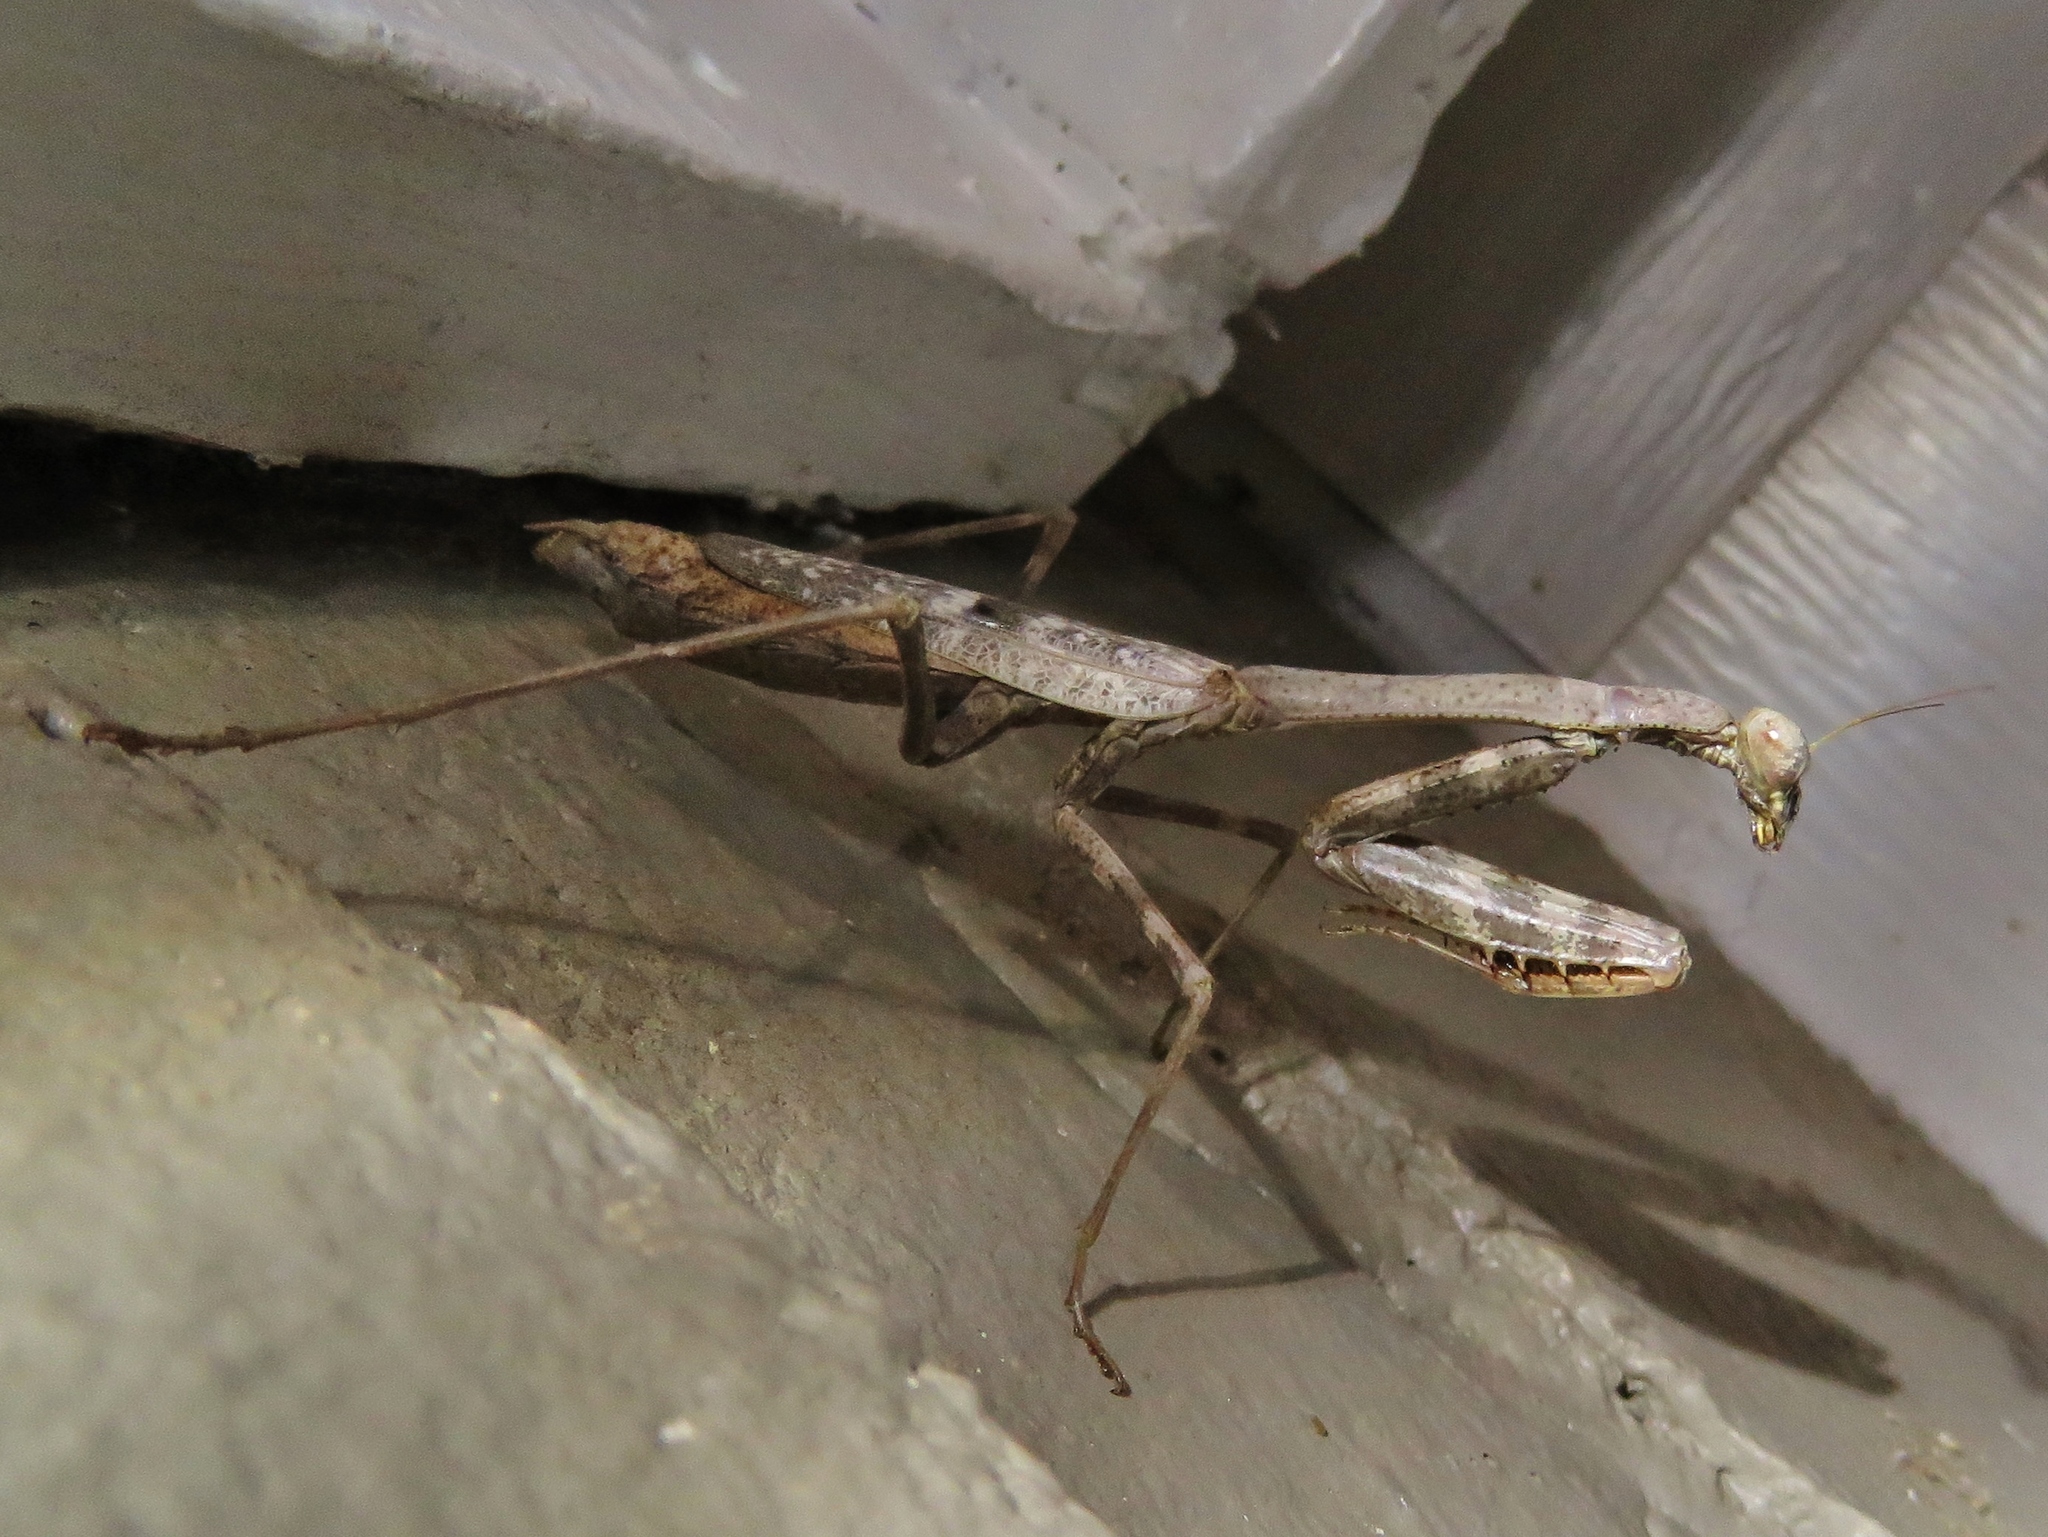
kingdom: Animalia
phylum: Arthropoda
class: Insecta
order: Mantodea
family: Mantidae
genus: Stagmomantis
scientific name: Stagmomantis carolina
